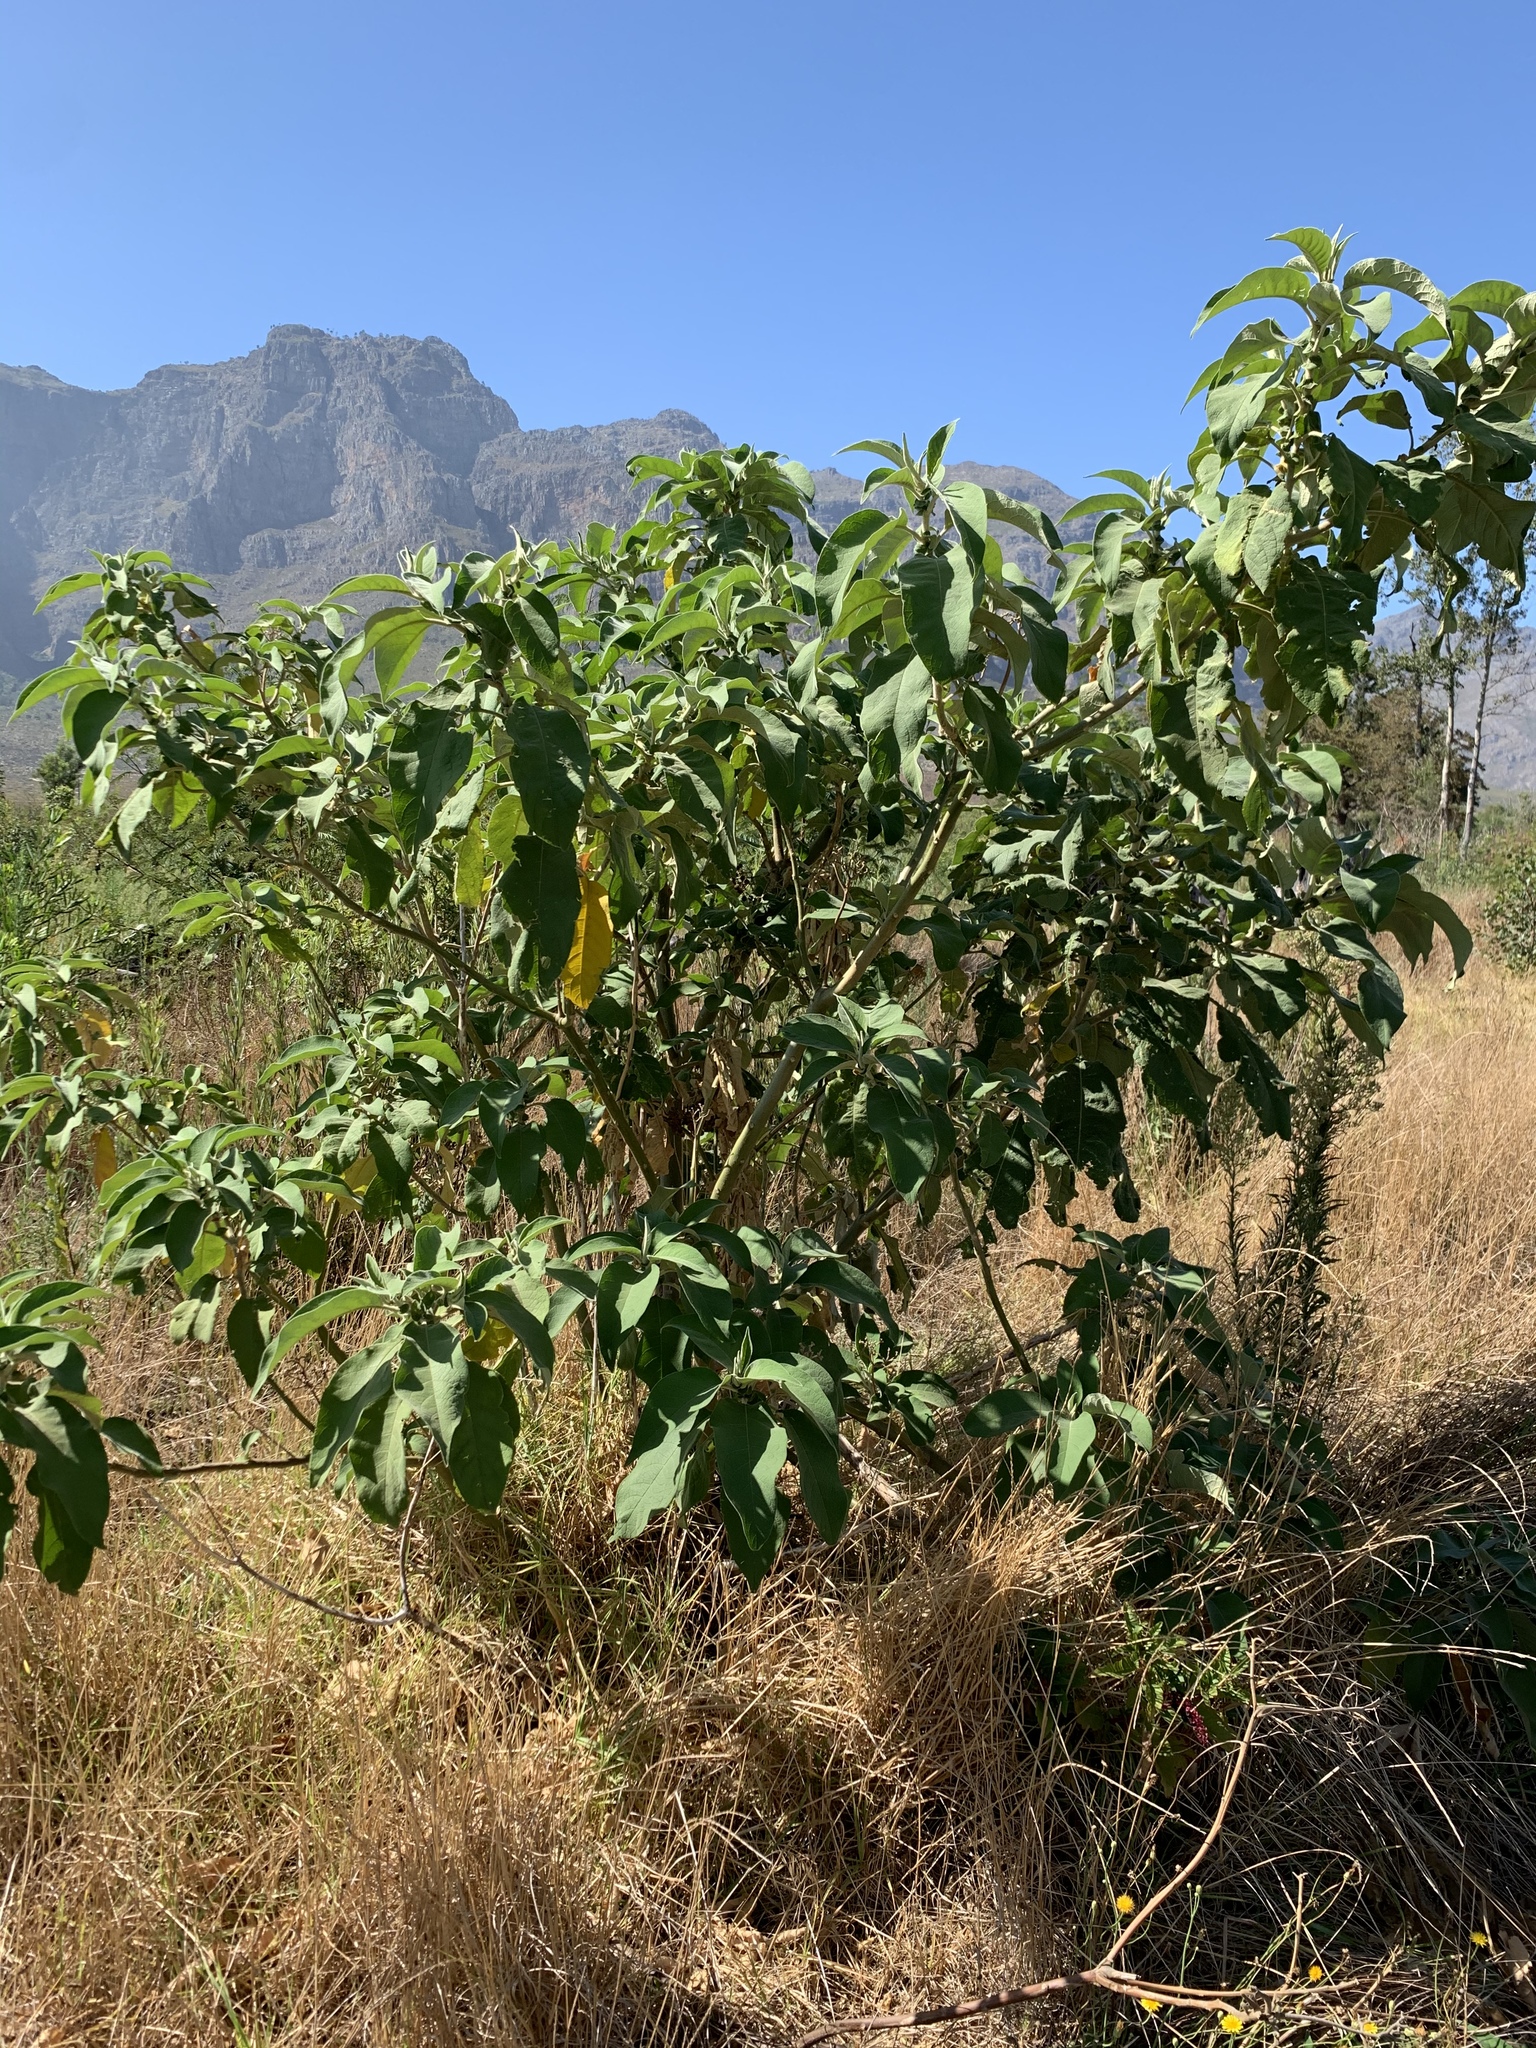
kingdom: Plantae
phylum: Tracheophyta
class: Magnoliopsida
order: Solanales
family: Solanaceae
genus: Solanum
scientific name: Solanum mauritianum
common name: Earleaf nightshade
